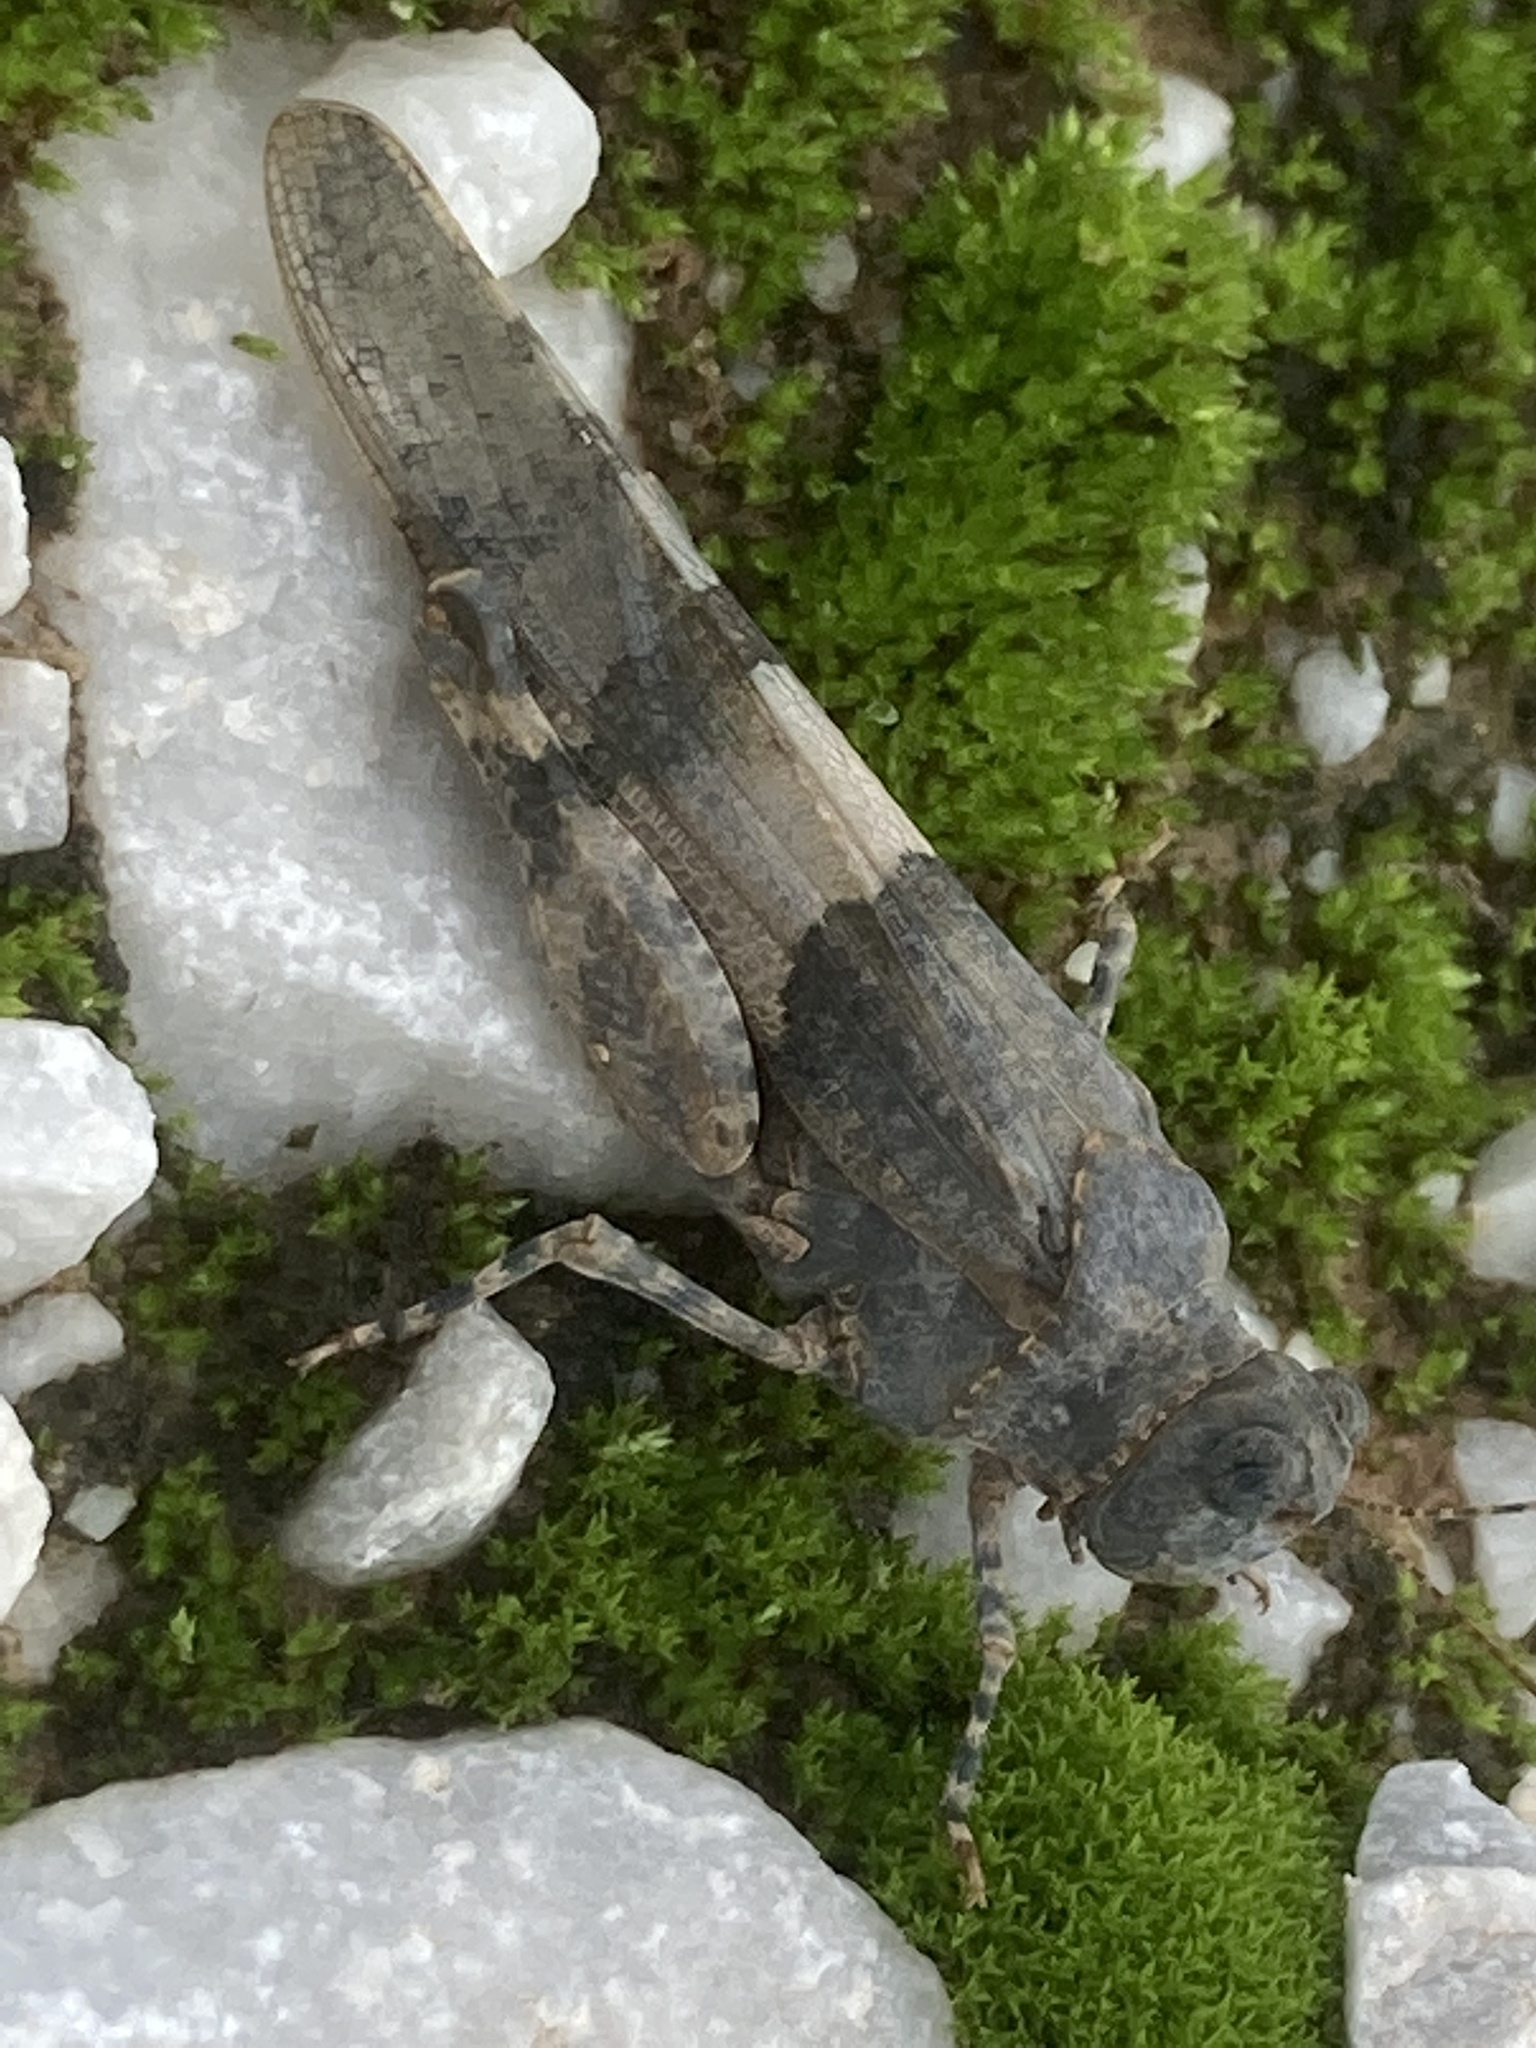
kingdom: Animalia
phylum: Arthropoda
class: Insecta
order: Orthoptera
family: Acrididae
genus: Oedipoda
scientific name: Oedipoda caerulescens
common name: Blue-winged grasshopper
